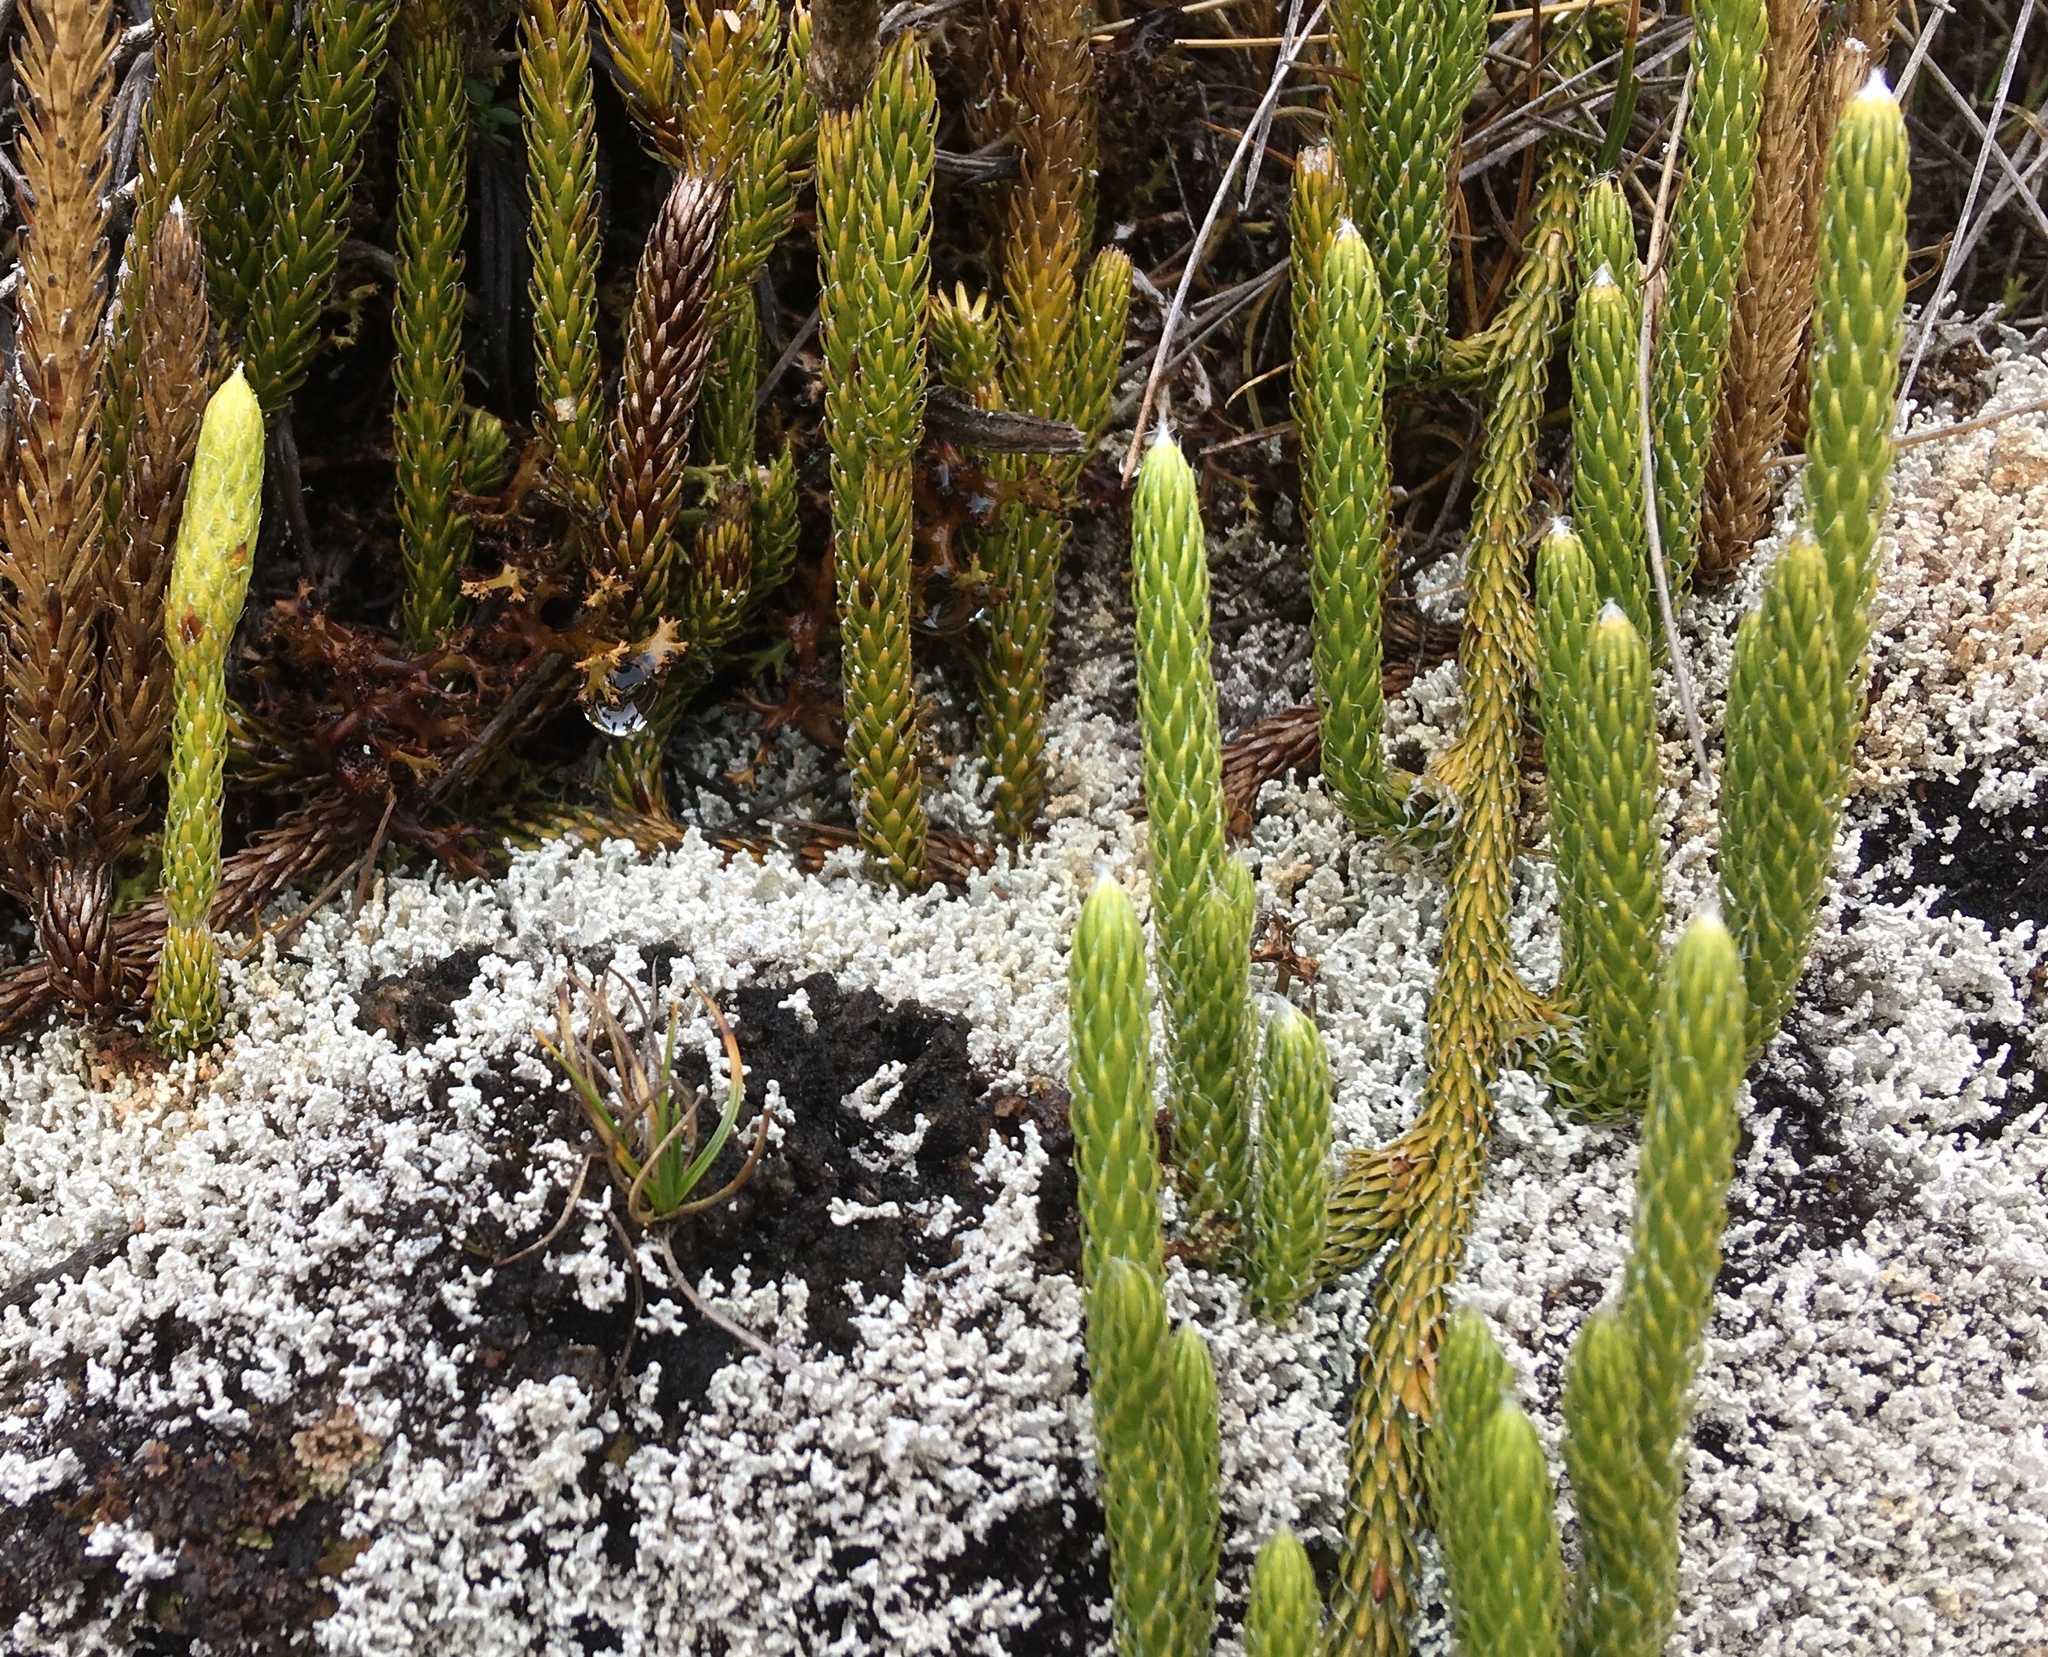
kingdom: Plantae
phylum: Tracheophyta
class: Lycopodiopsida
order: Lycopodiales
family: Lycopodiaceae
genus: Lycopodium
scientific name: Lycopodium clavatum
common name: Stag's-horn clubmoss
